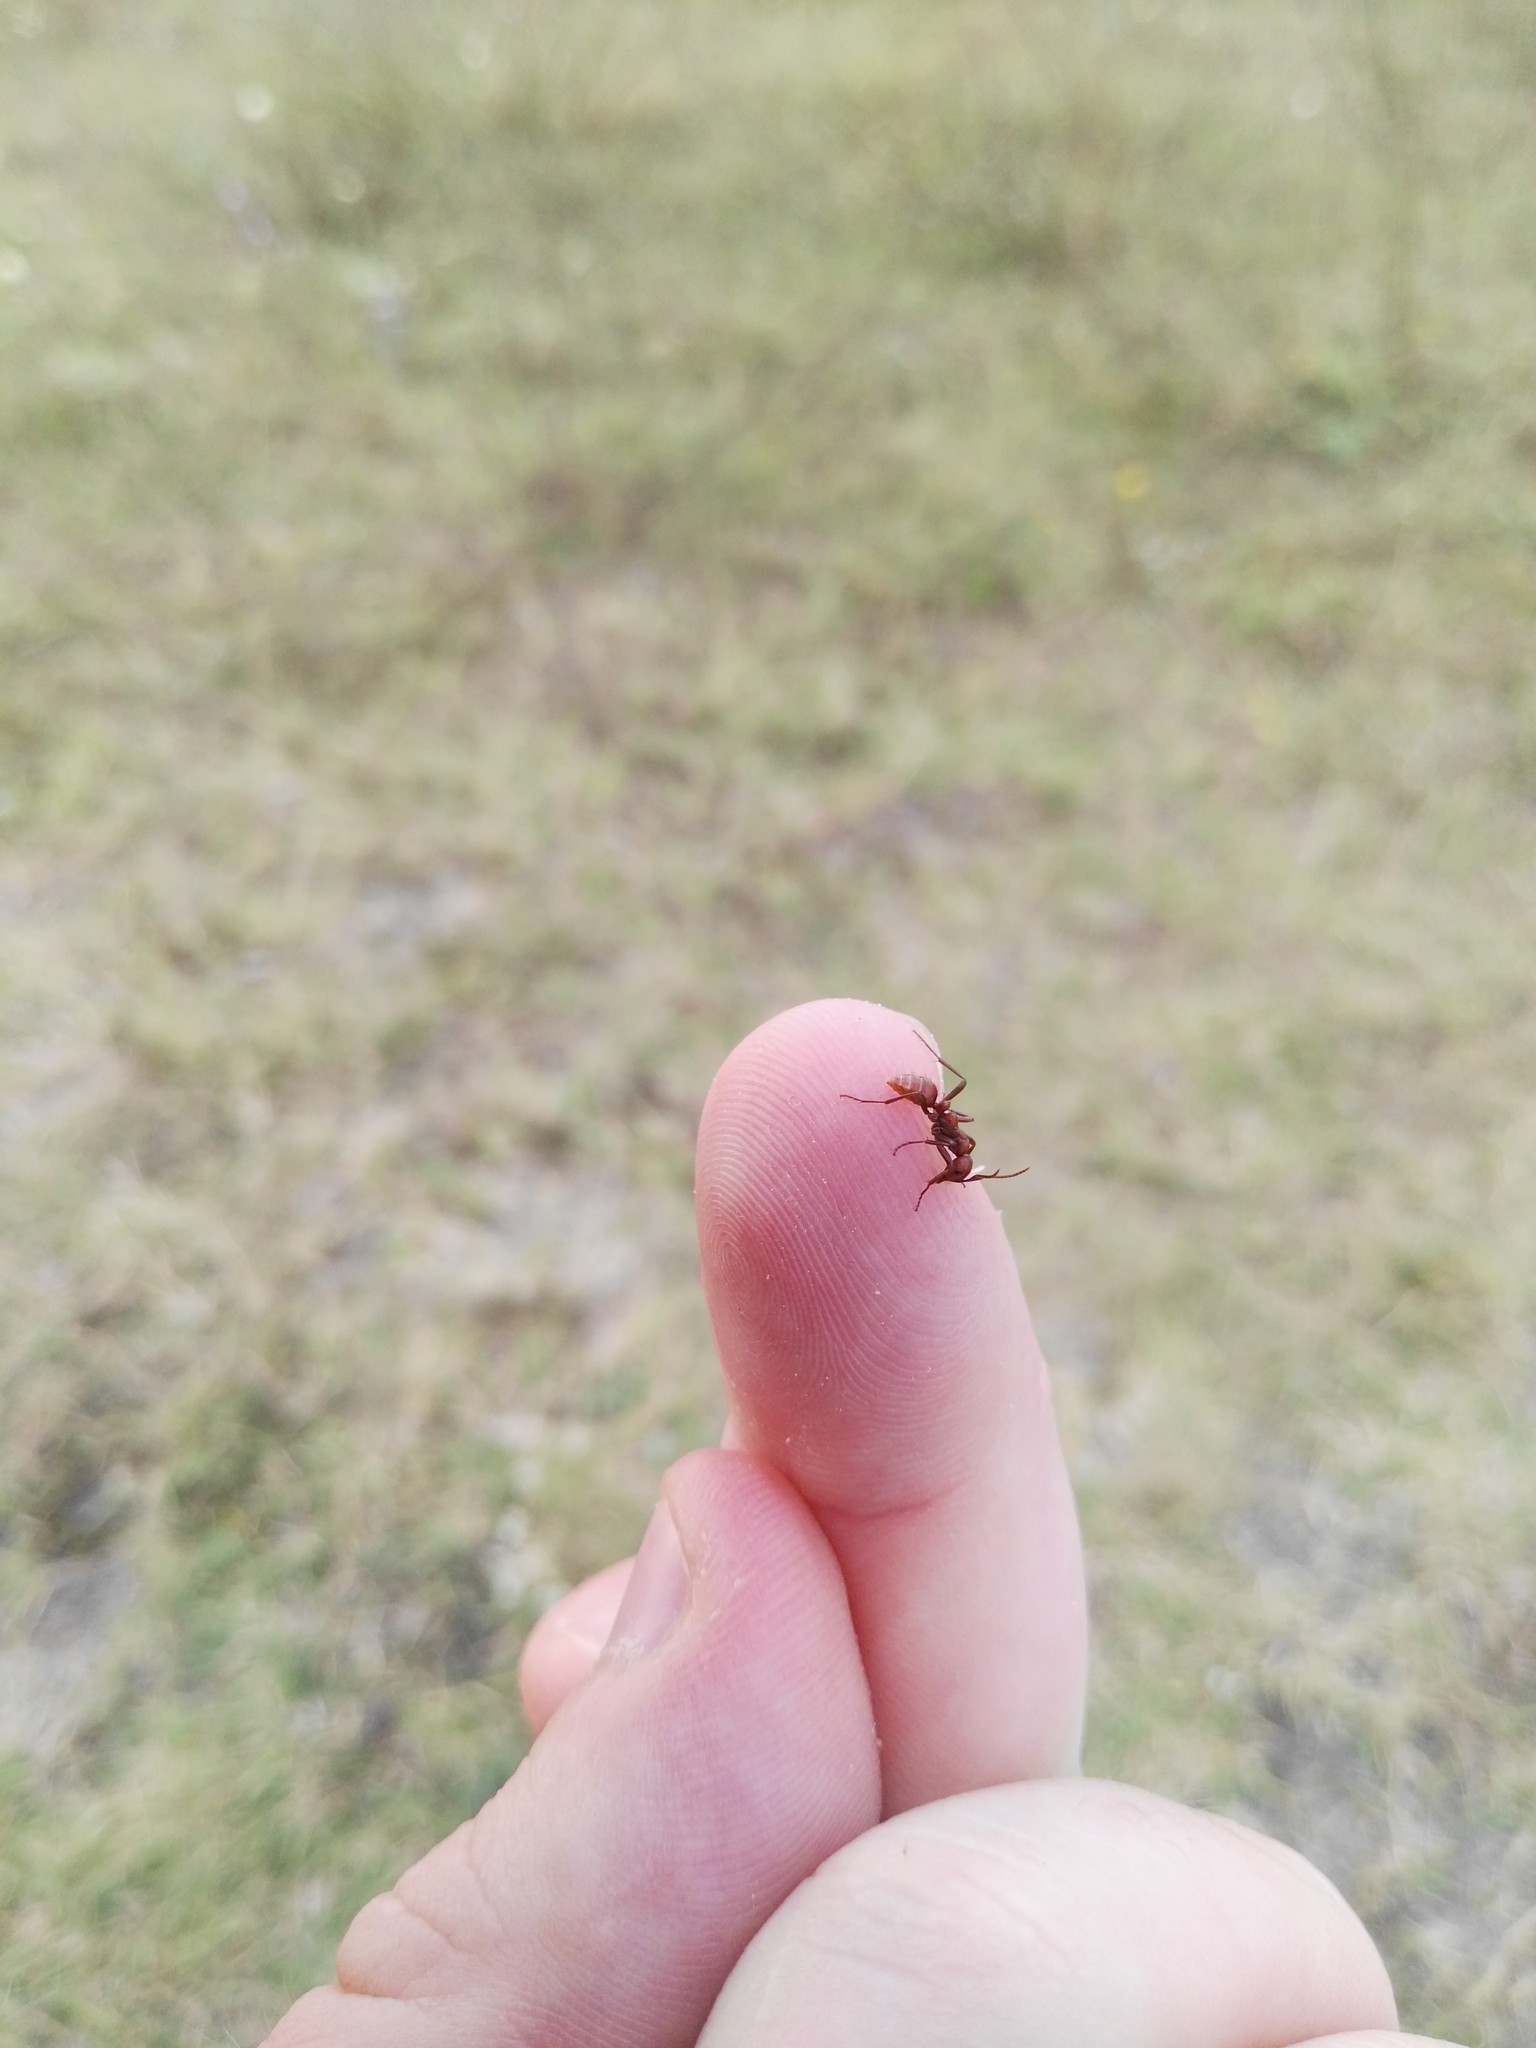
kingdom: Animalia
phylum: Arthropoda
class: Insecta
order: Hymenoptera
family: Formicidae
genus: Polyergus
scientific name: Polyergus rufescens
